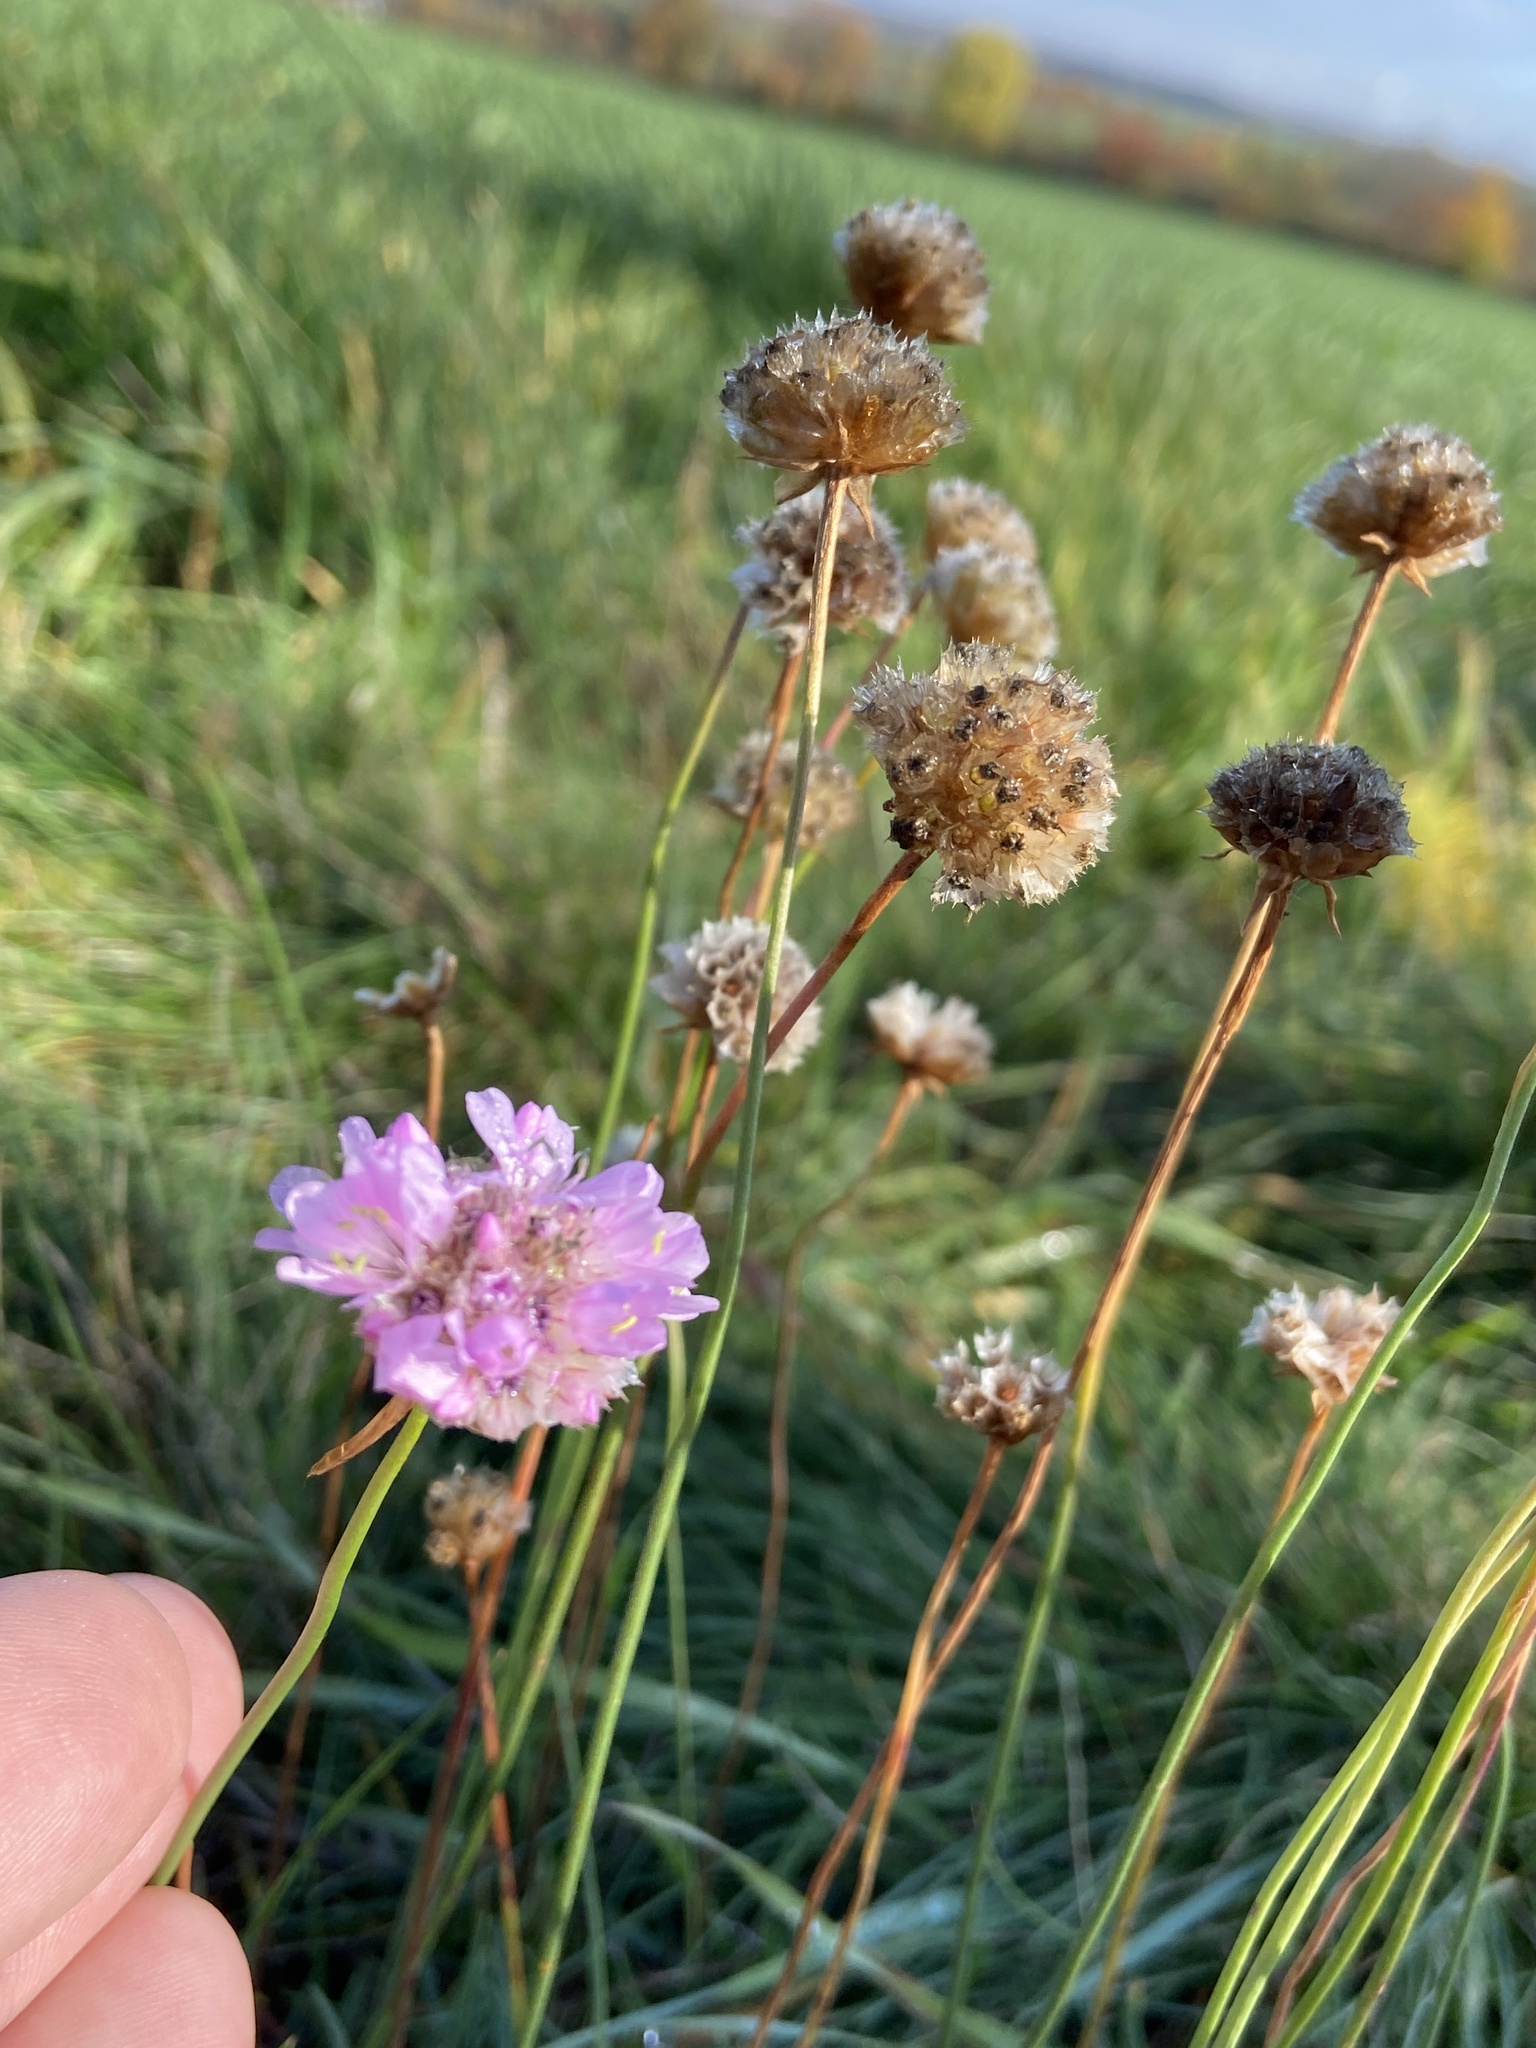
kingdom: Plantae
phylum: Tracheophyta
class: Magnoliopsida
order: Caryophyllales
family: Plumbaginaceae
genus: Armeria
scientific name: Armeria maritima
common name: Thrift
